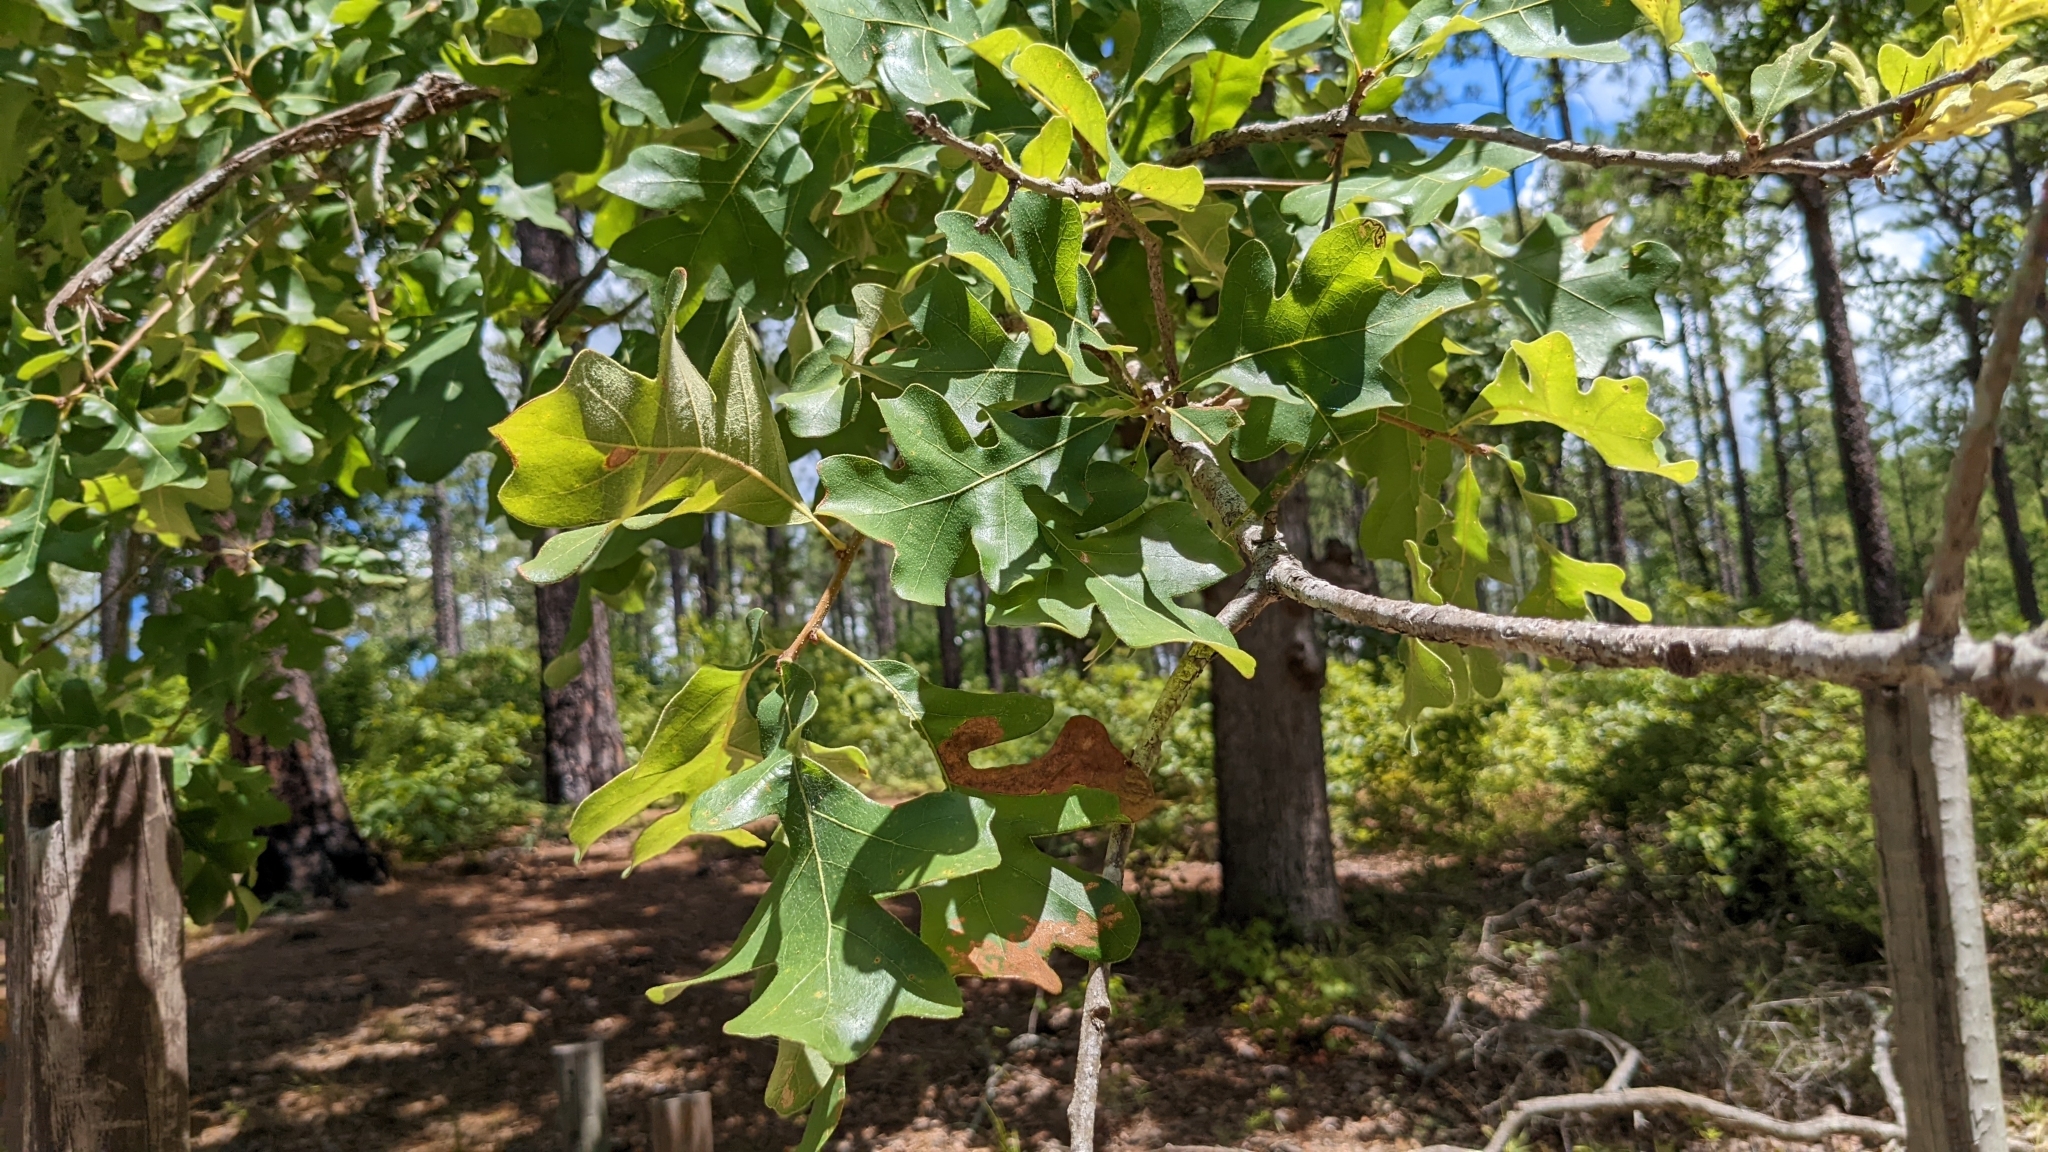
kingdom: Plantae
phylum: Tracheophyta
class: Magnoliopsida
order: Fagales
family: Fagaceae
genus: Quercus
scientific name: Quercus stellata
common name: Post oak
